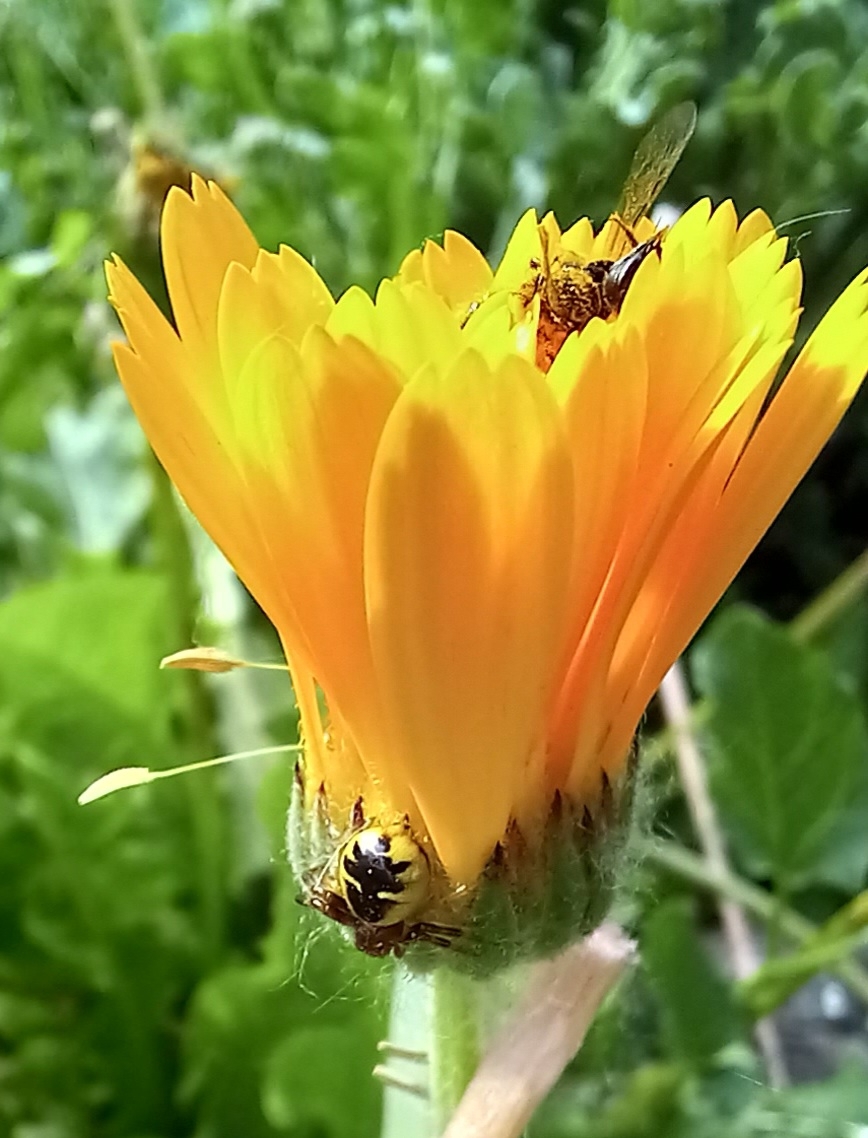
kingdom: Animalia
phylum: Arthropoda
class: Arachnida
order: Araneae
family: Thomisidae
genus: Synema
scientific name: Synema globosum
